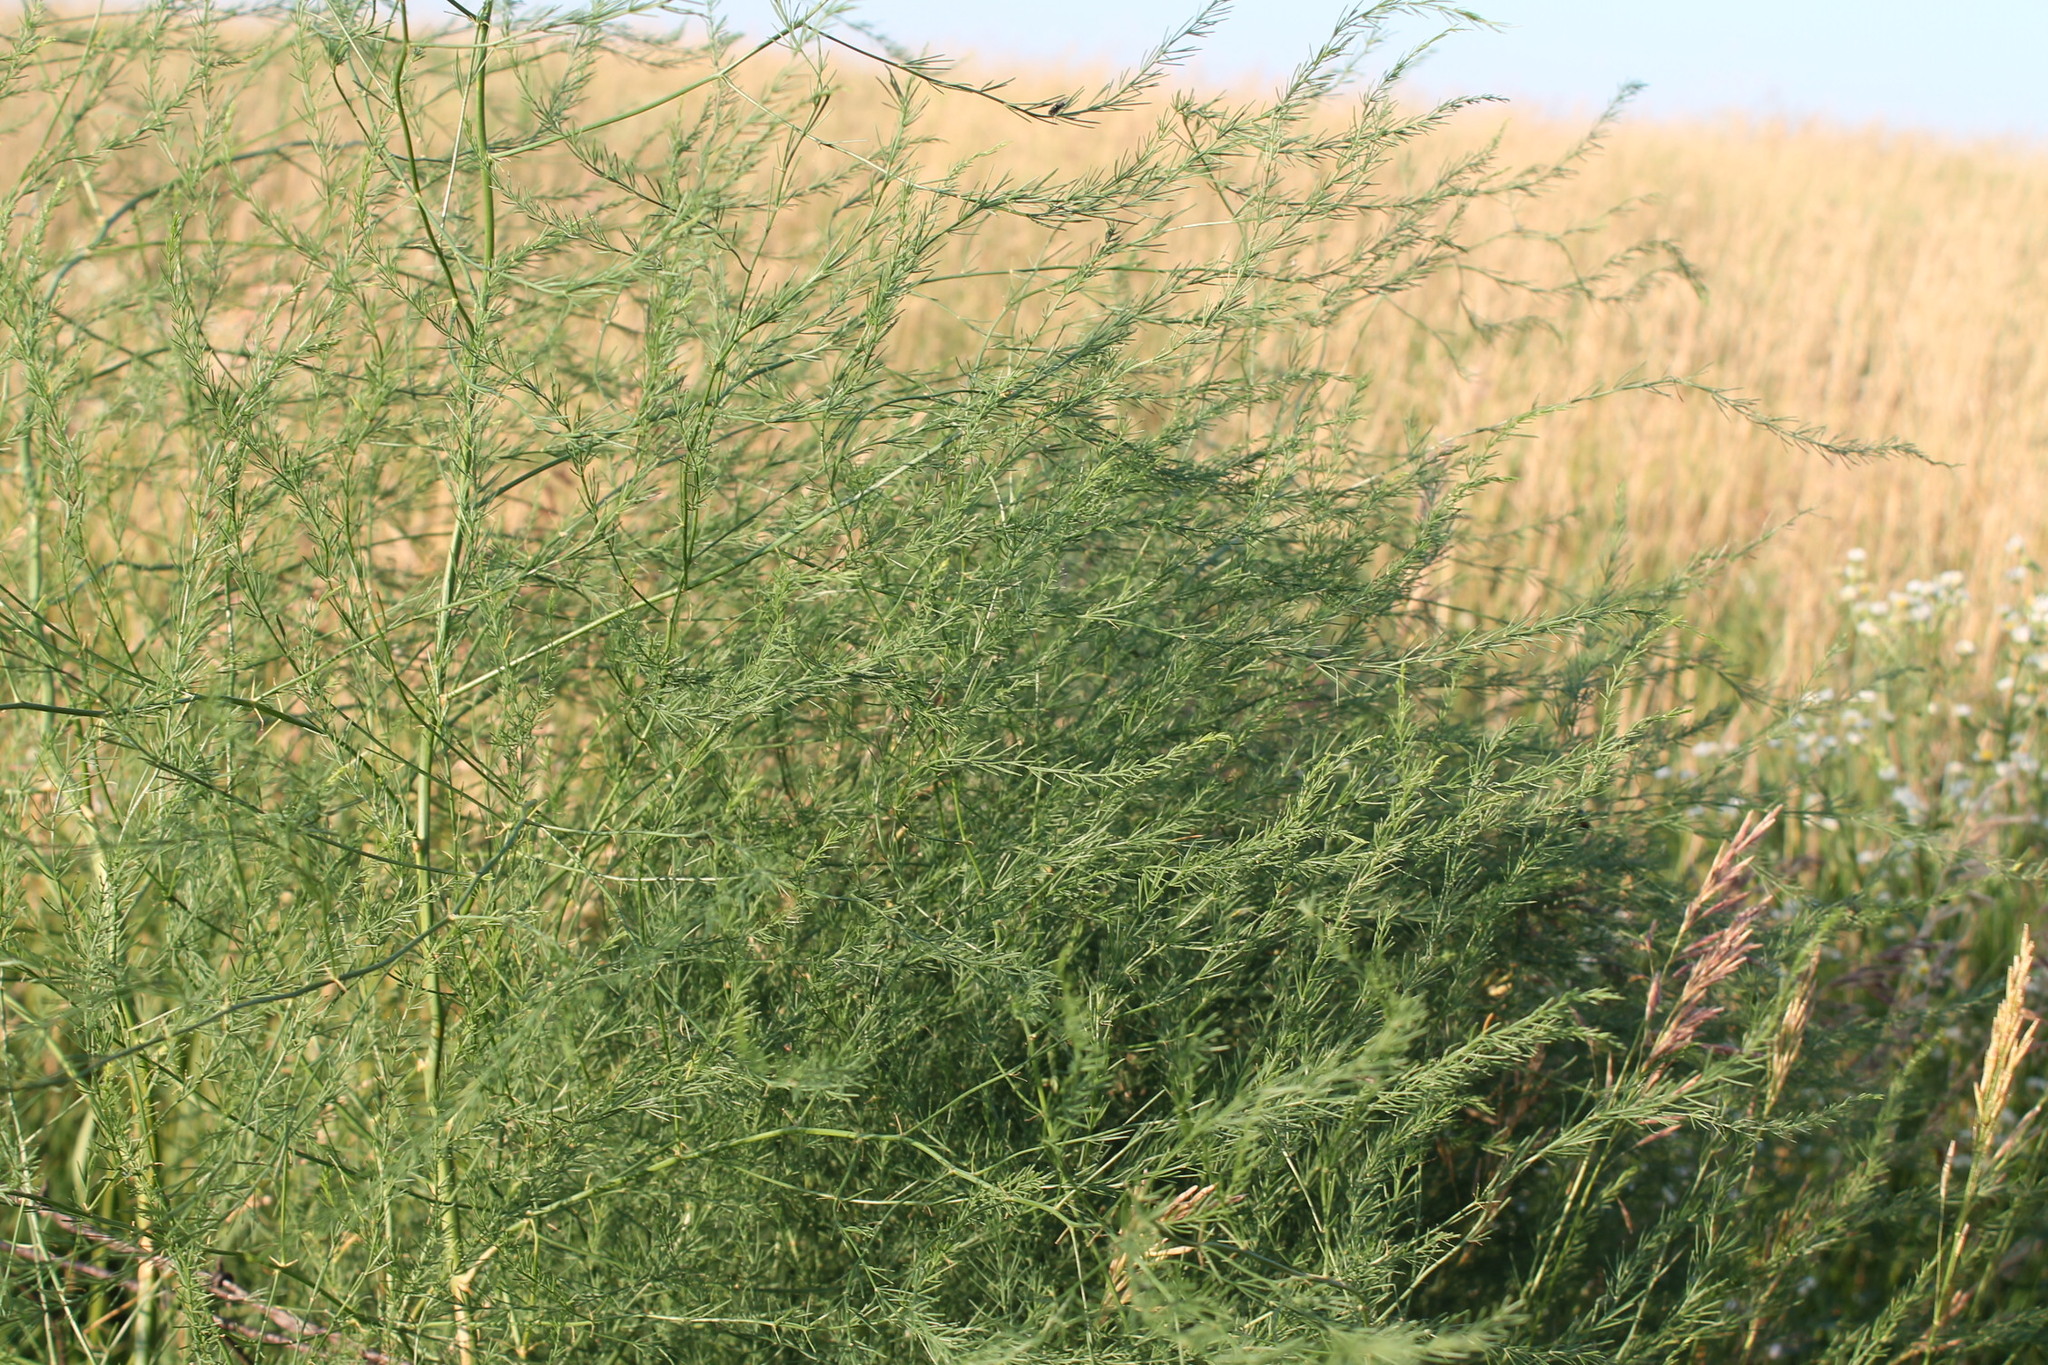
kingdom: Plantae
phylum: Tracheophyta
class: Liliopsida
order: Asparagales
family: Asparagaceae
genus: Asparagus
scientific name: Asparagus officinalis
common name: Garden asparagus
